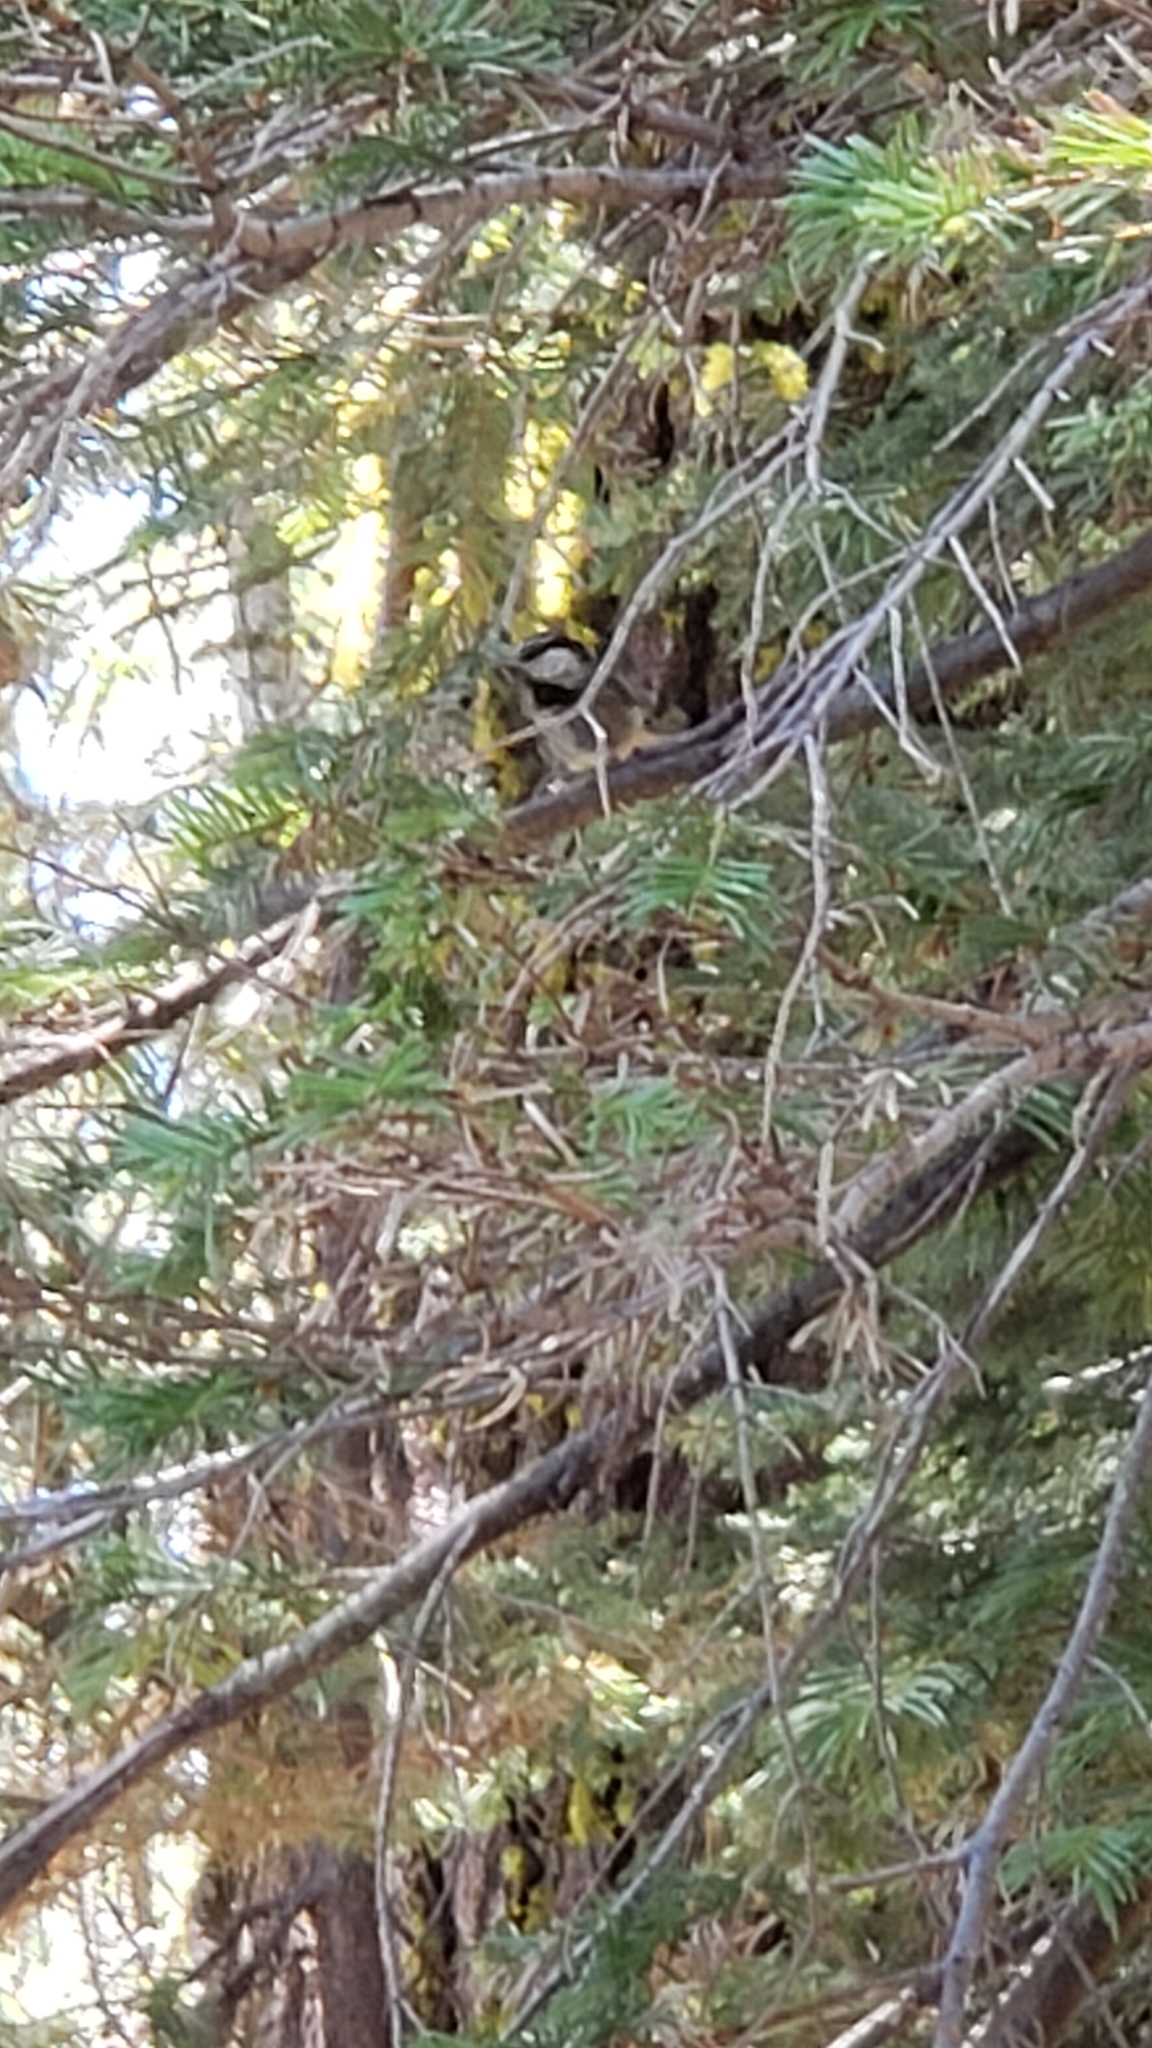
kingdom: Animalia
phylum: Chordata
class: Aves
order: Passeriformes
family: Paridae
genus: Poecile
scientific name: Poecile gambeli
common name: Mountain chickadee
